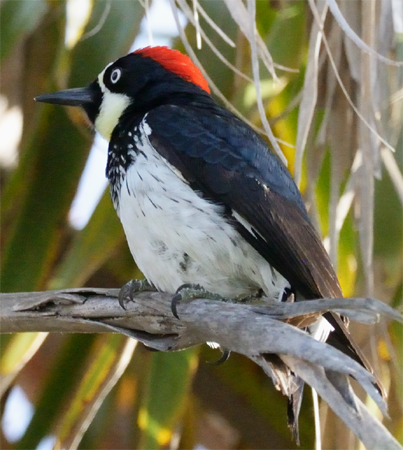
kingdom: Animalia
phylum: Chordata
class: Aves
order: Piciformes
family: Picidae
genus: Melanerpes
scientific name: Melanerpes formicivorus
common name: Acorn woodpecker
